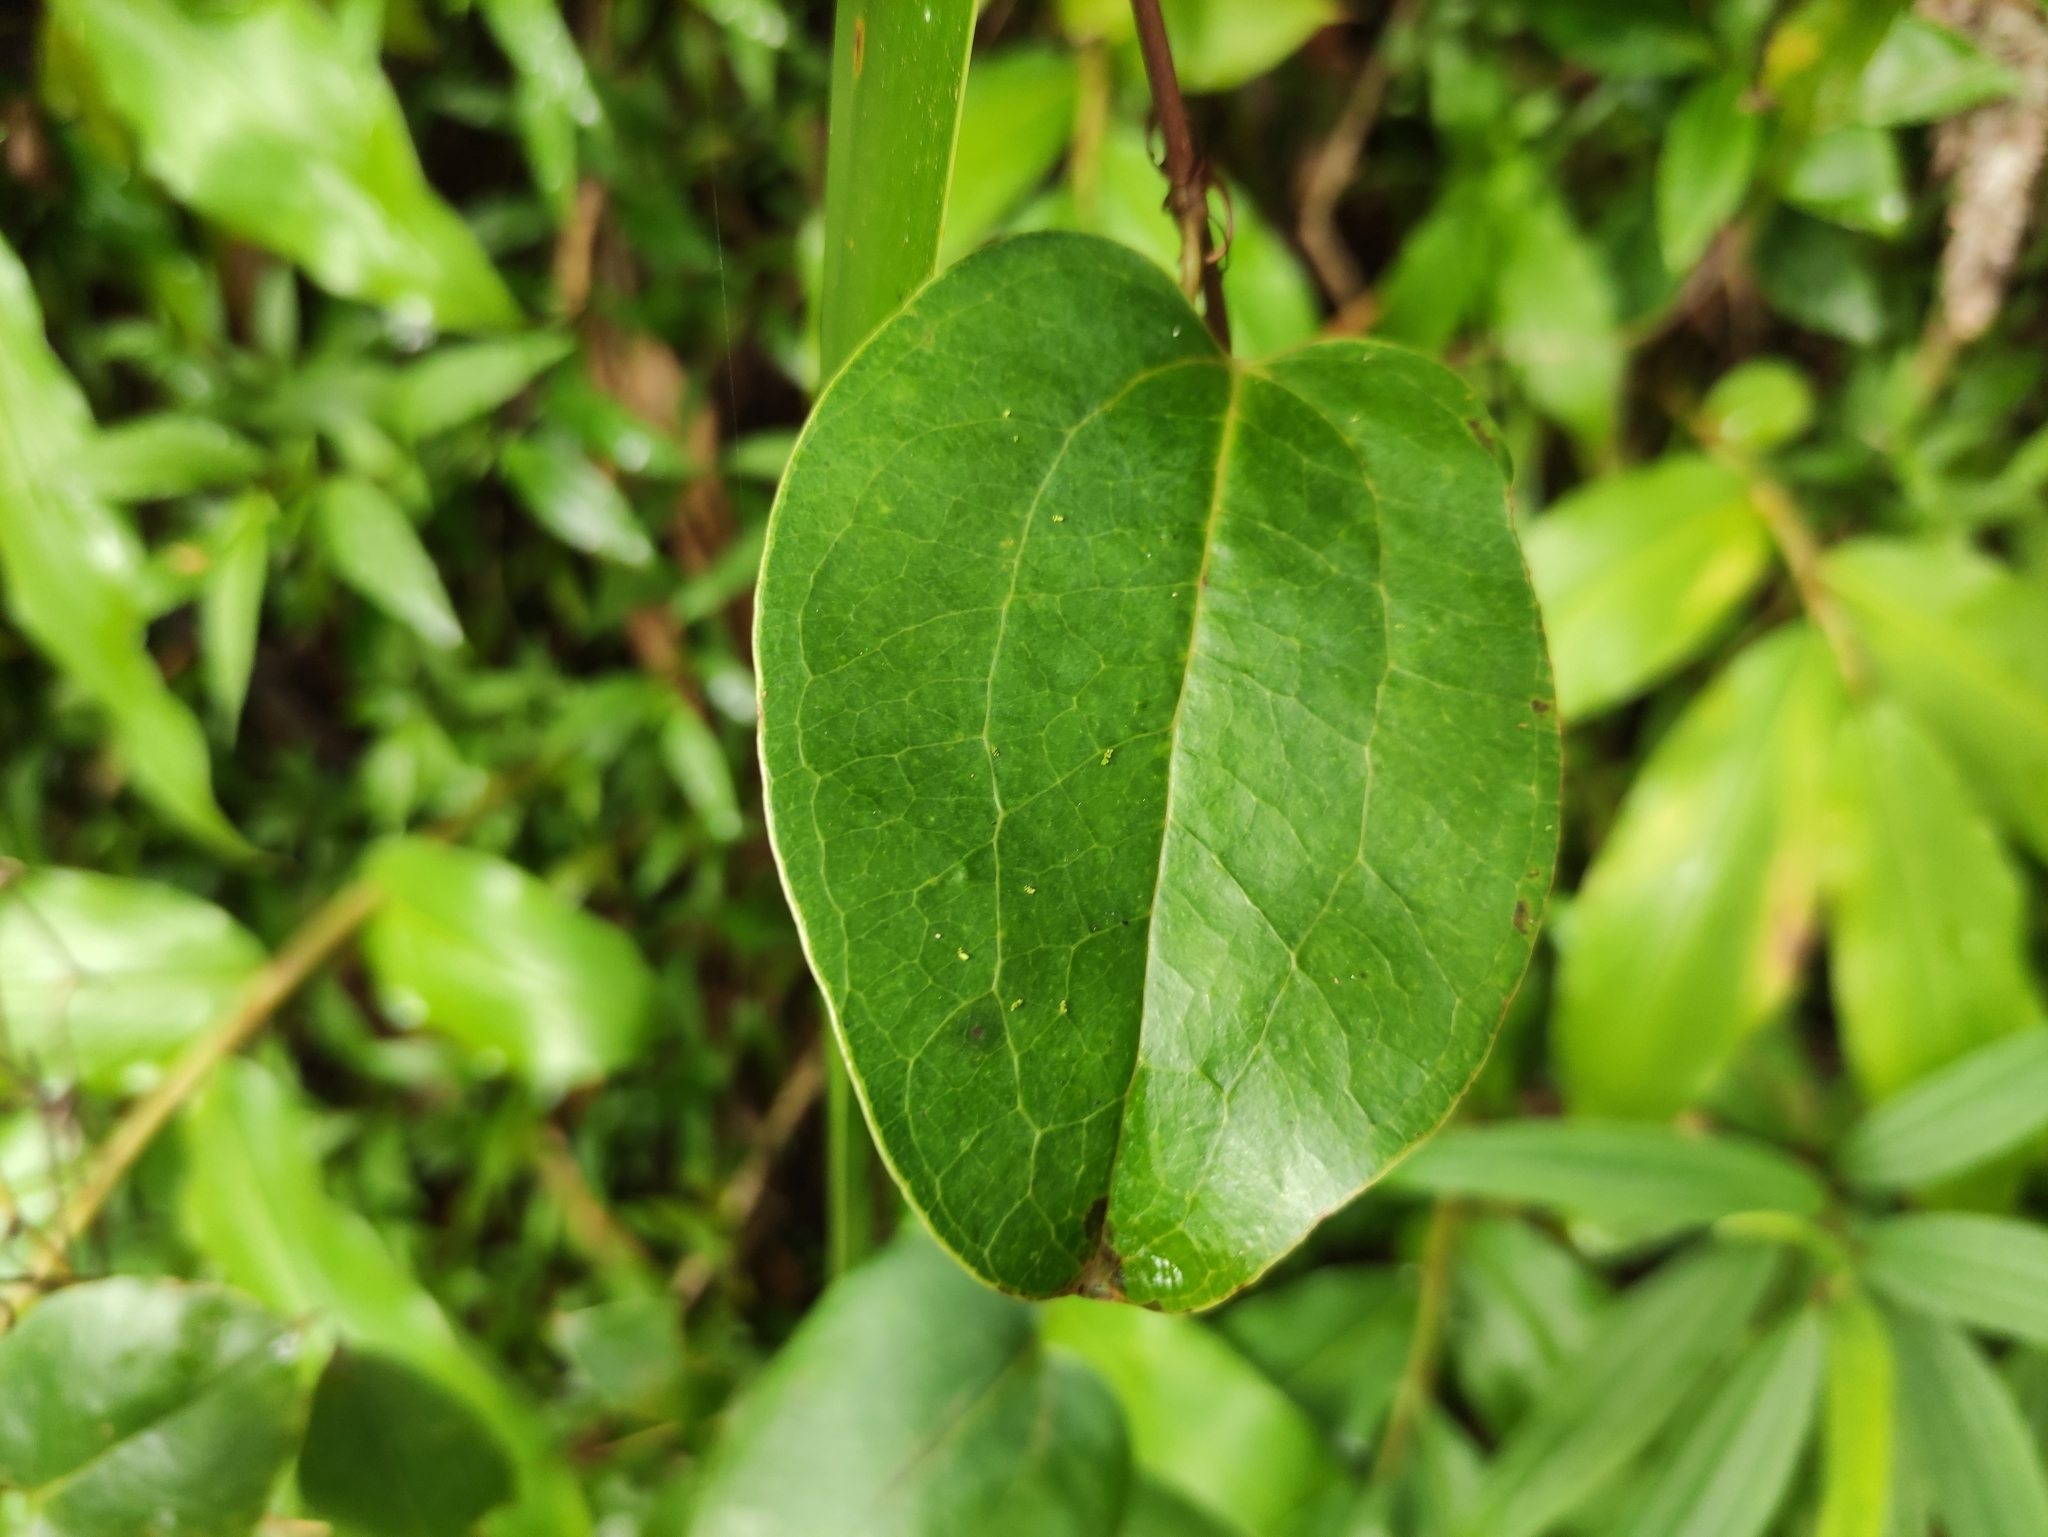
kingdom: Plantae
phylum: Tracheophyta
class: Liliopsida
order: Liliales
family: Smilacaceae
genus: Smilax
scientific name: Smilax anceps
